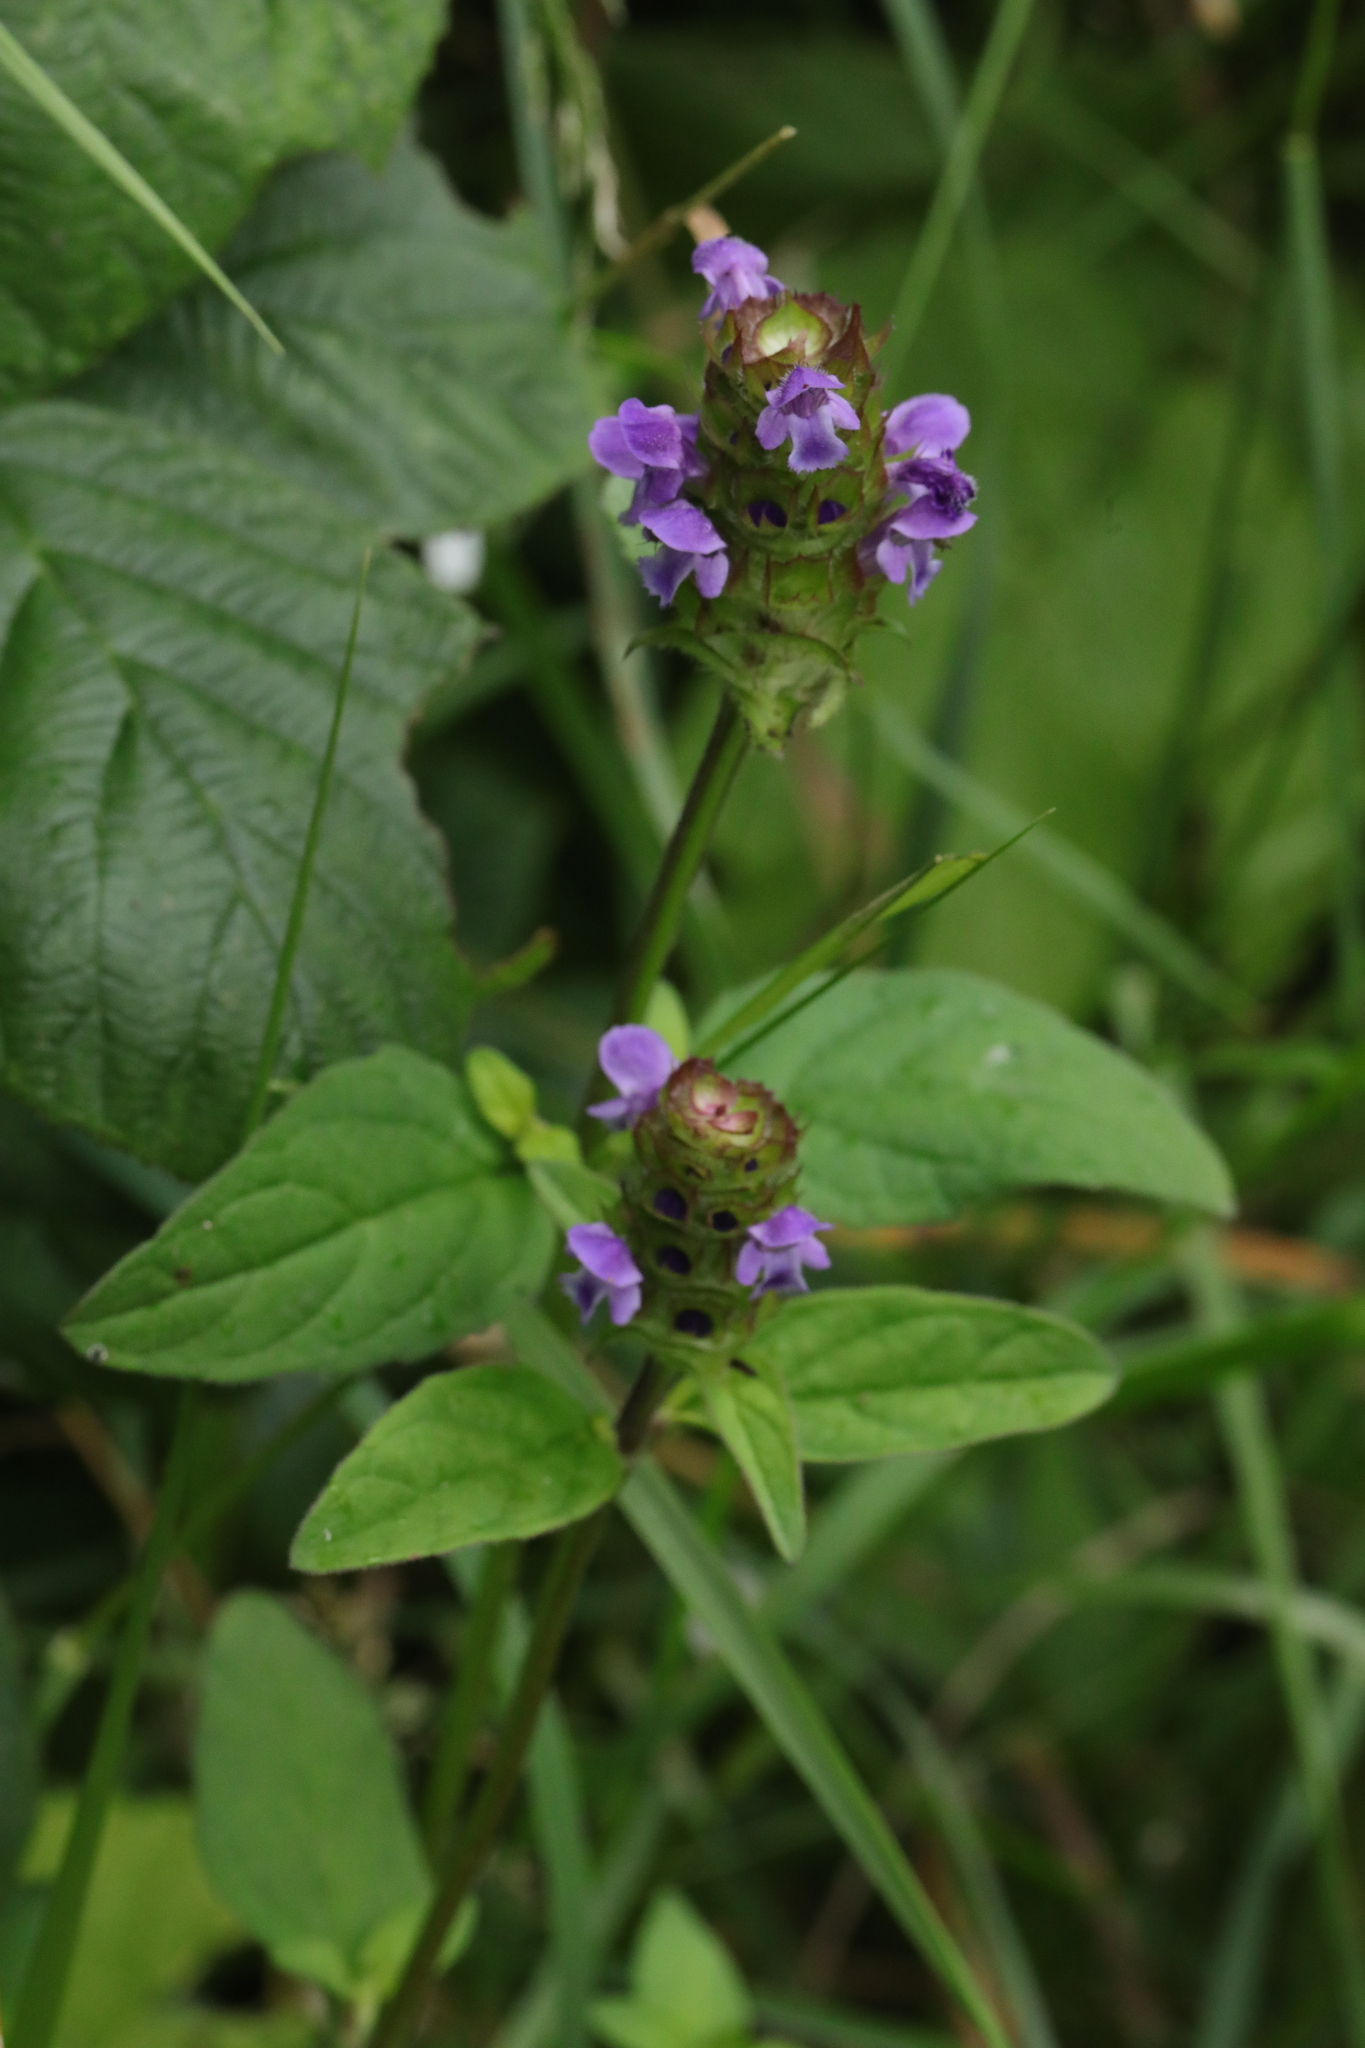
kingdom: Plantae
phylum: Tracheophyta
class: Magnoliopsida
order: Lamiales
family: Lamiaceae
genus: Prunella
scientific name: Prunella vulgaris
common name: Heal-all
